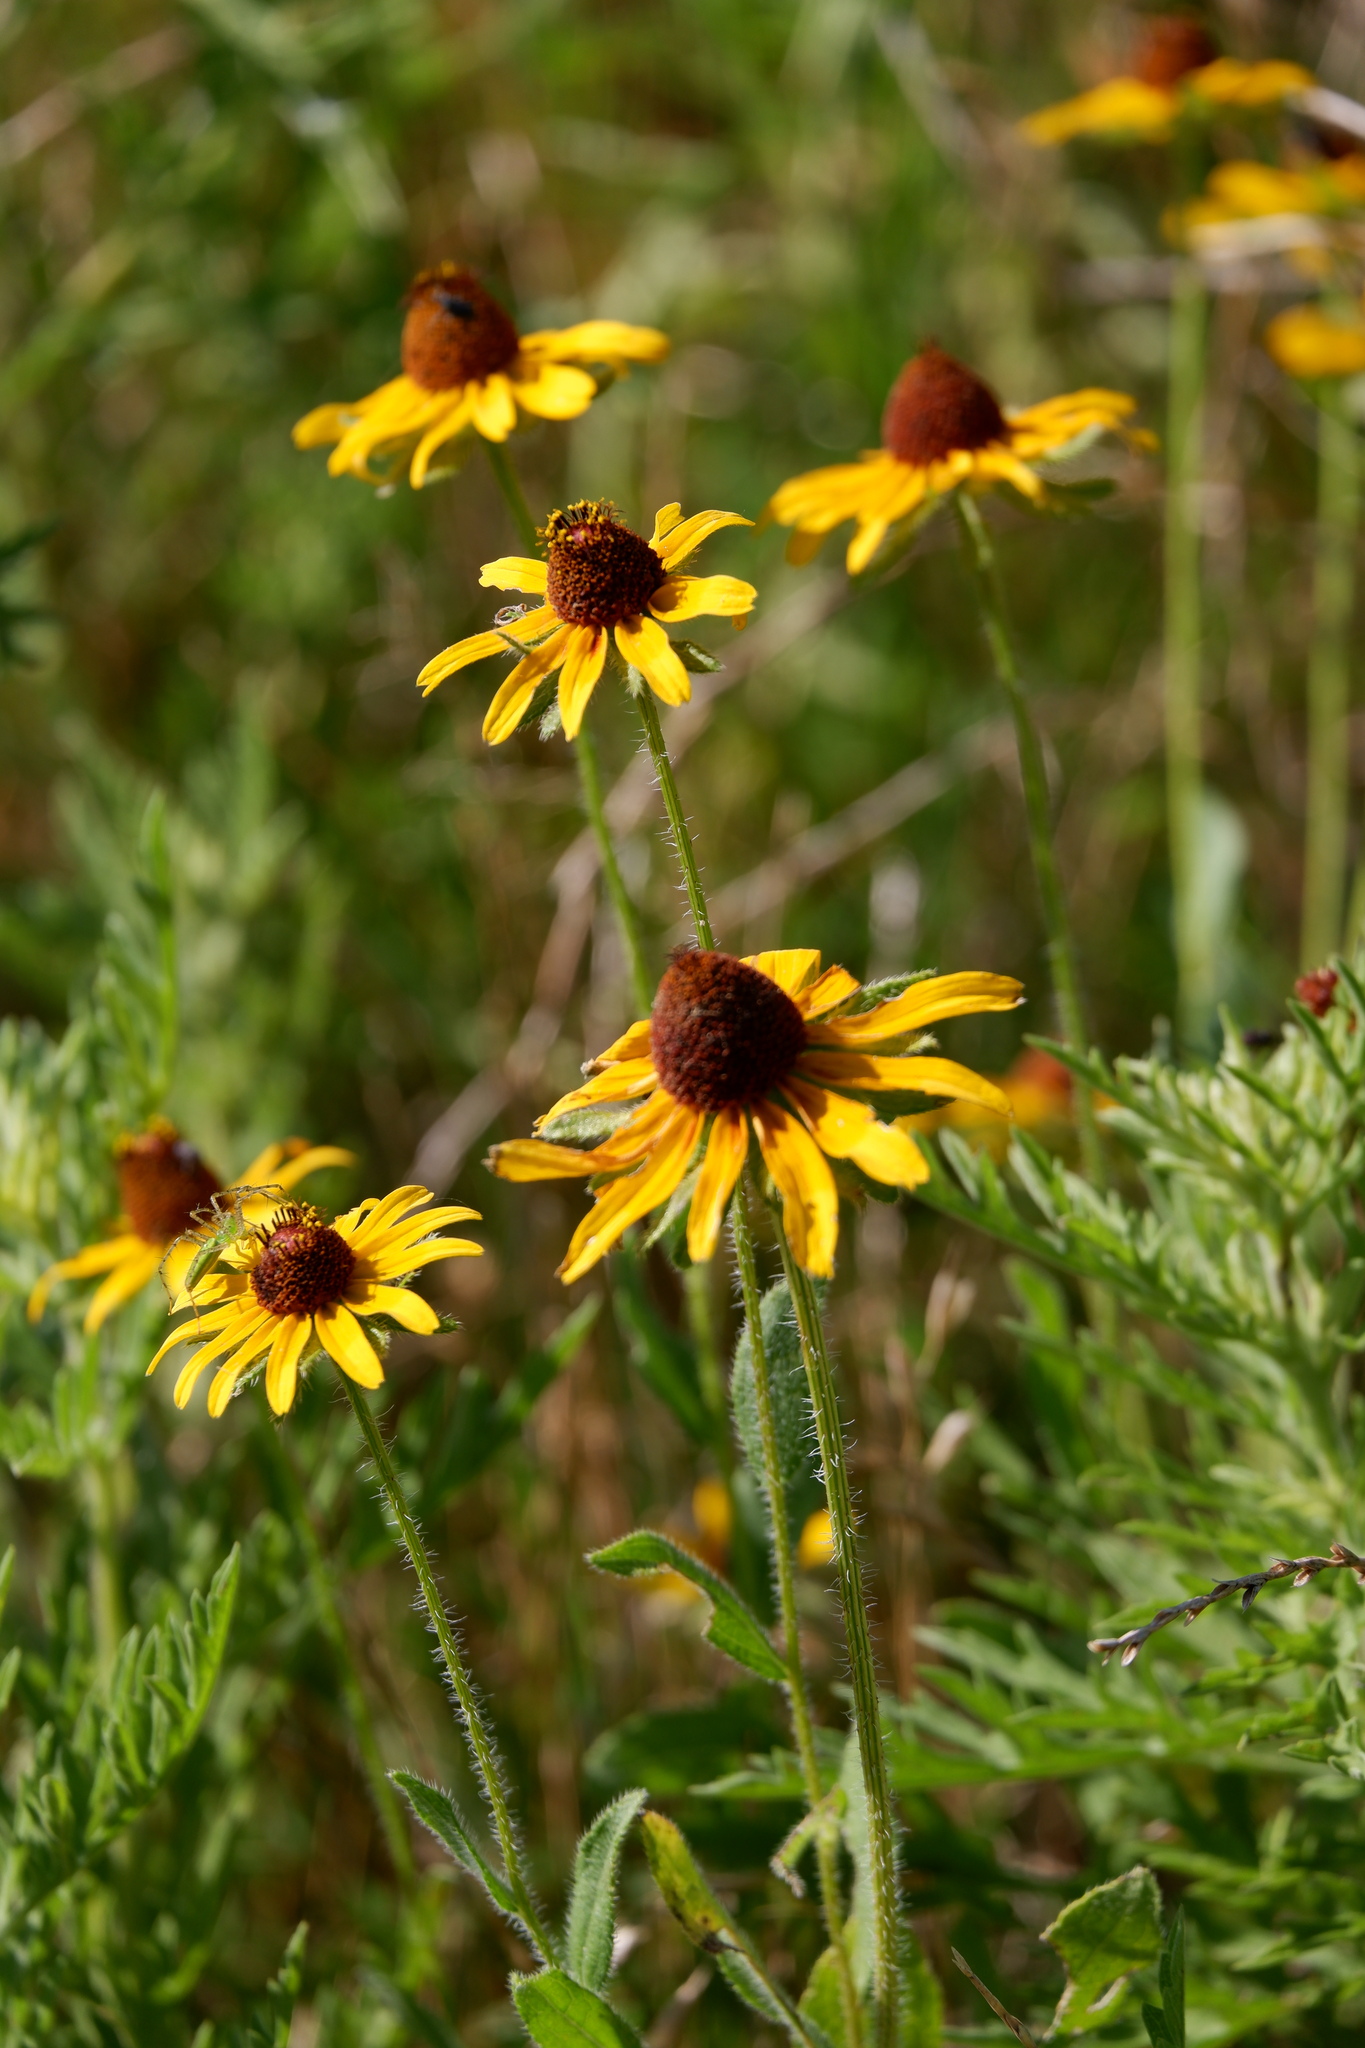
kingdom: Plantae
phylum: Tracheophyta
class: Magnoliopsida
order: Asterales
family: Asteraceae
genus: Rudbeckia
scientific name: Rudbeckia hirta
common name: Black-eyed-susan
